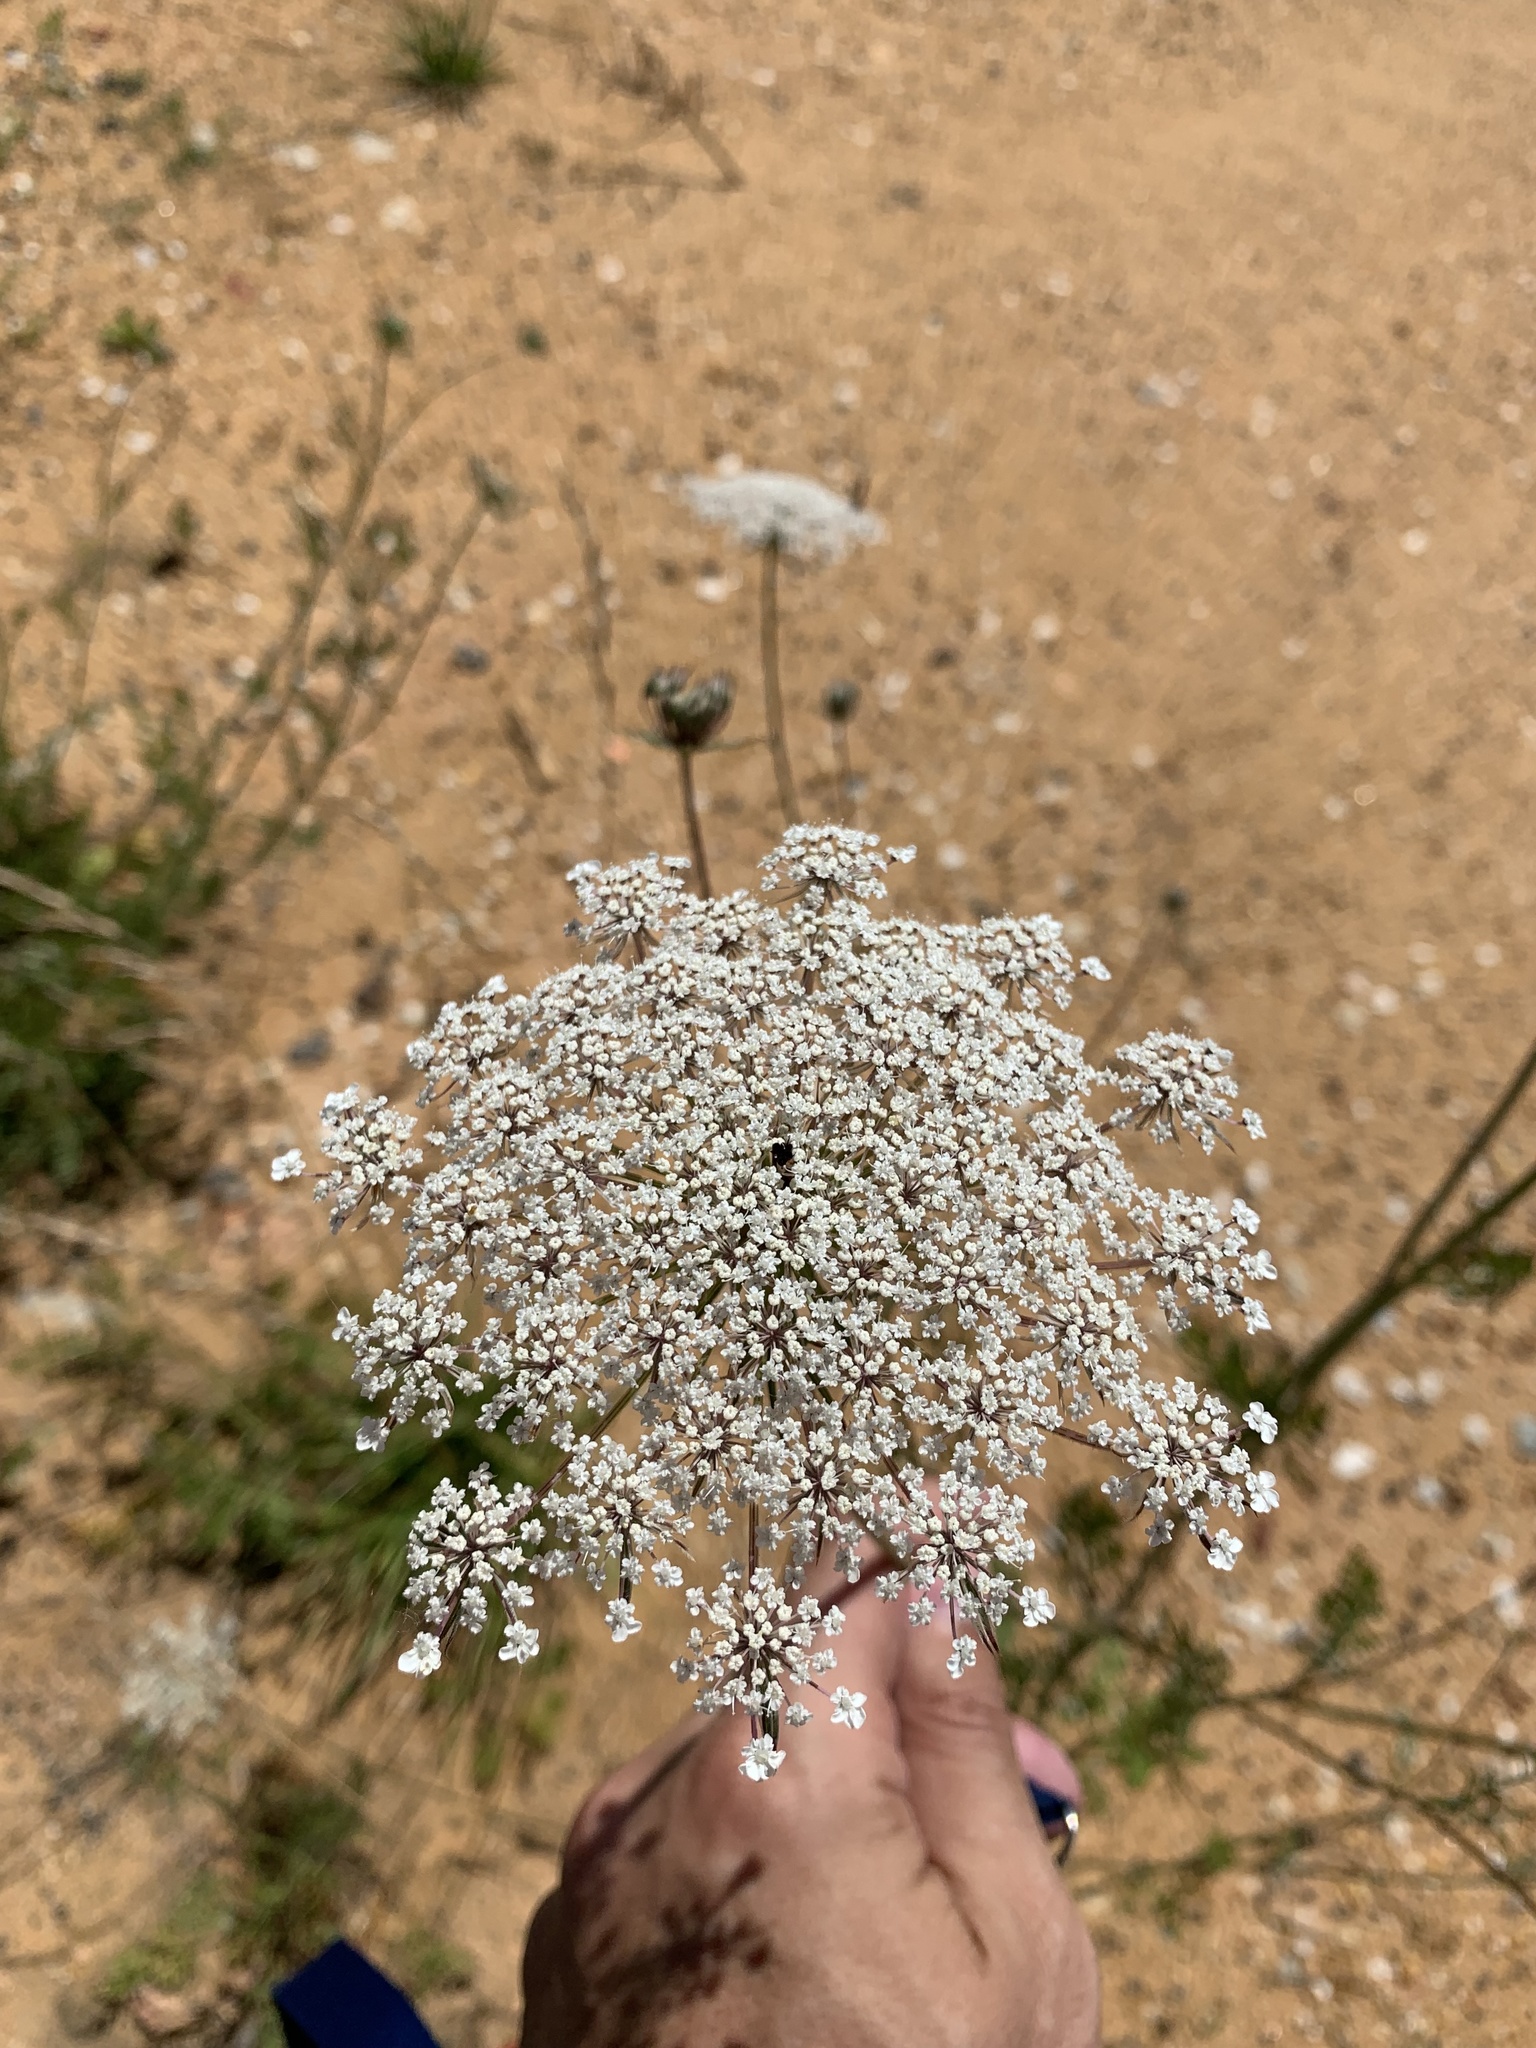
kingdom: Plantae
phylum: Tracheophyta
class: Magnoliopsida
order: Apiales
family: Apiaceae
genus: Daucus
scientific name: Daucus carota
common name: Wild carrot
